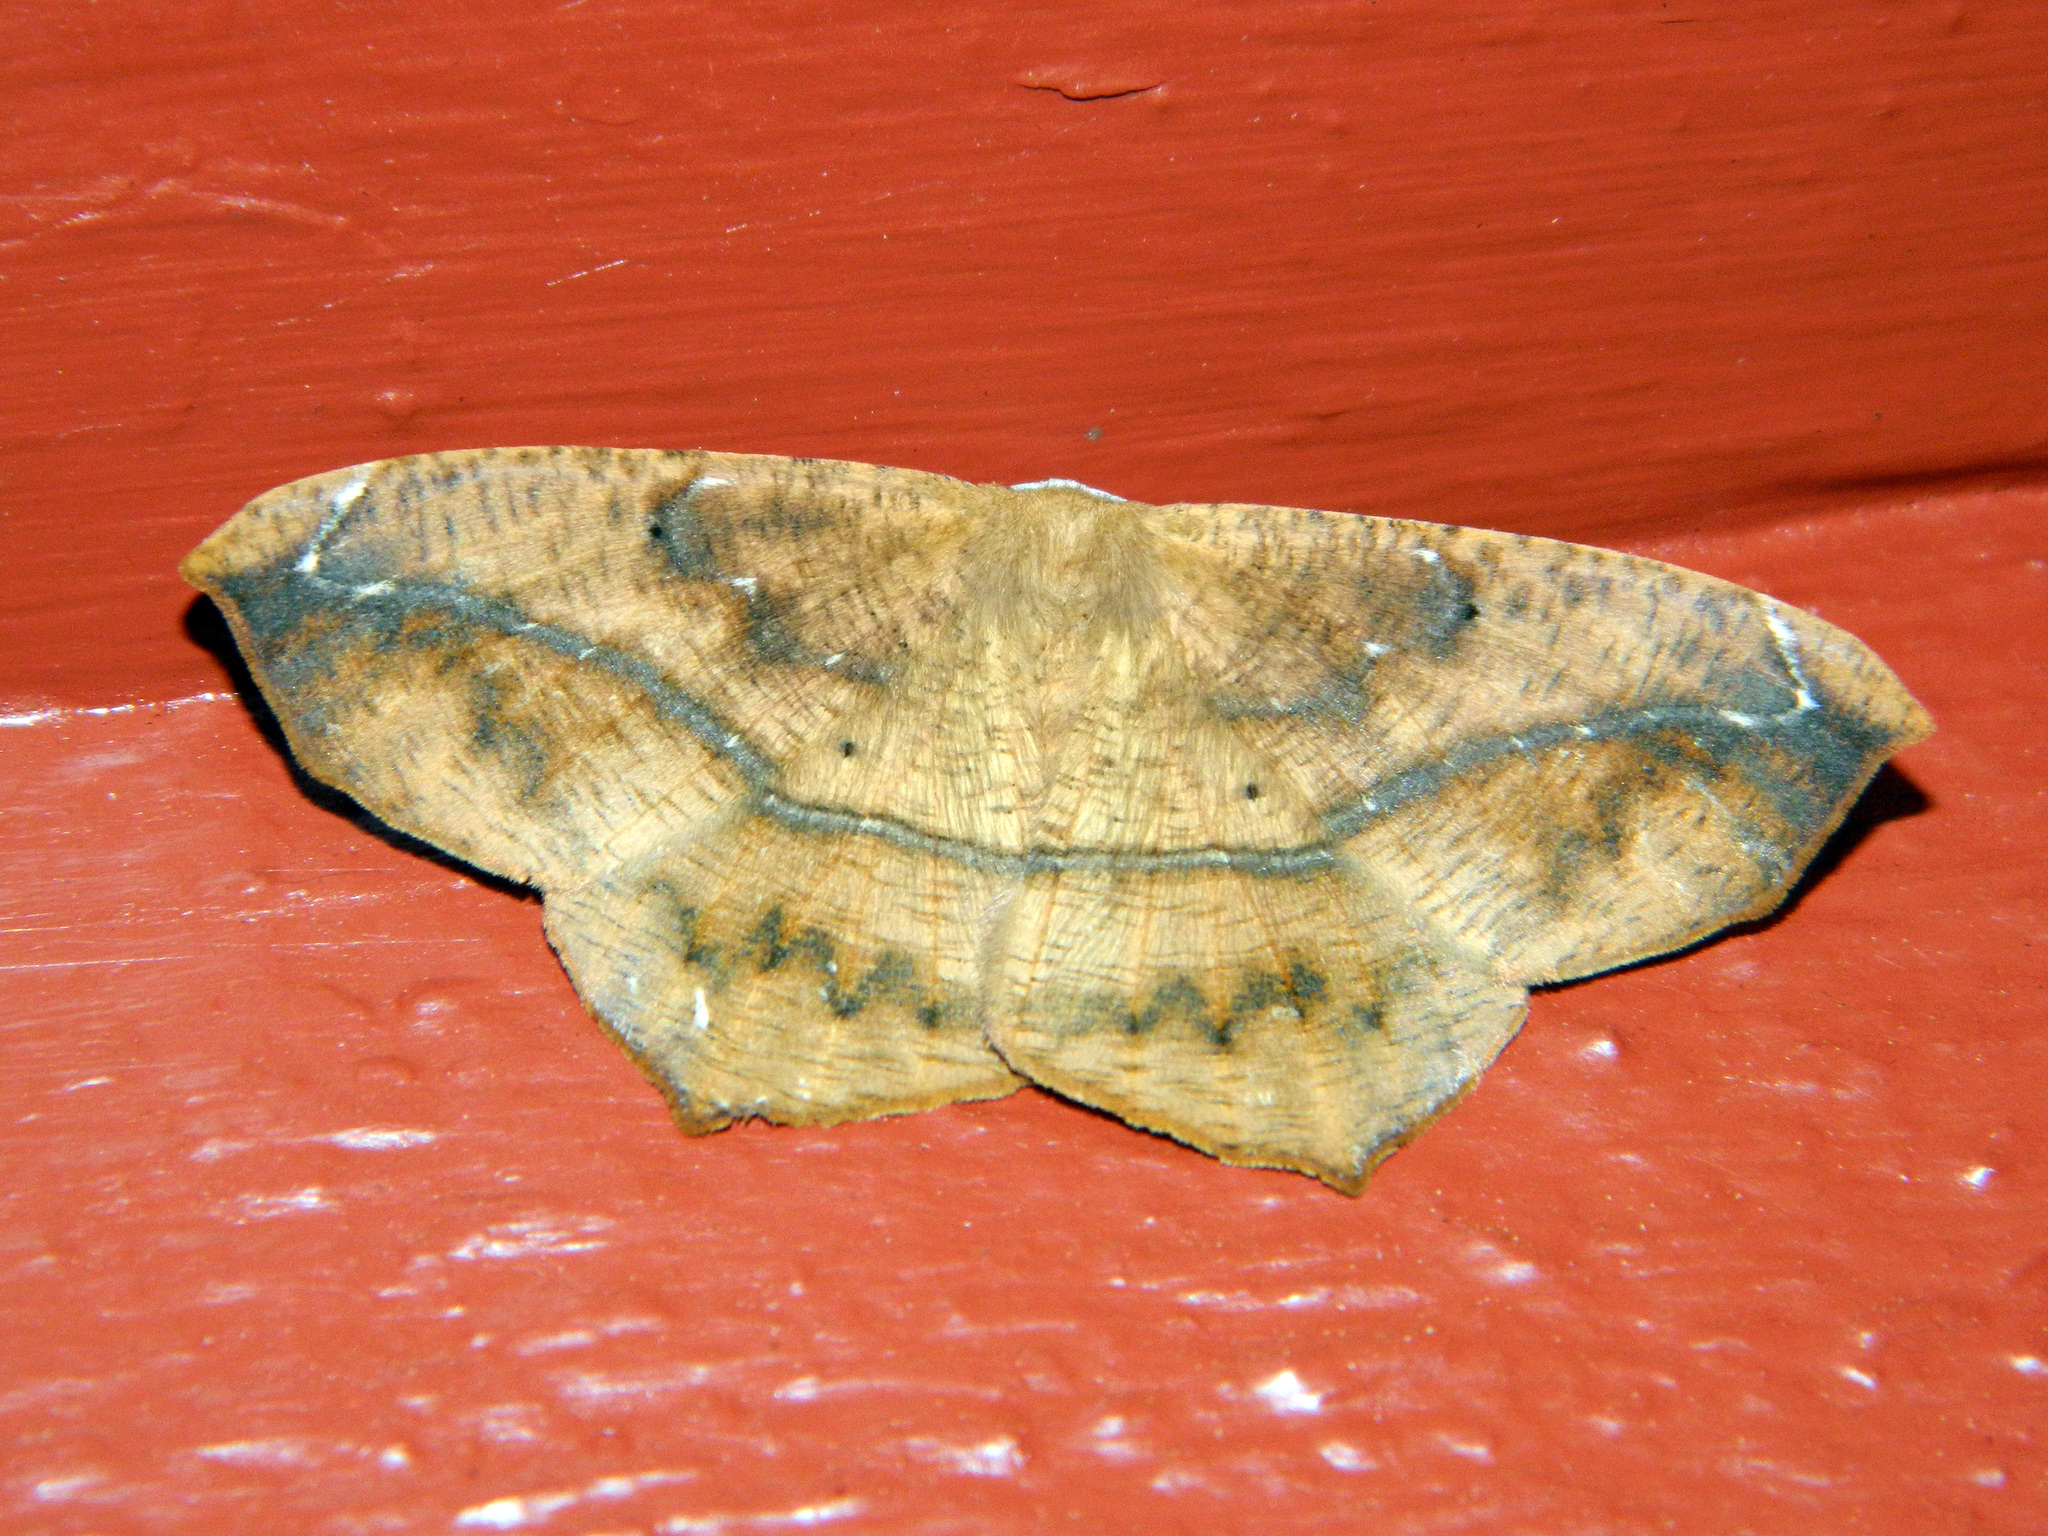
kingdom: Animalia
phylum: Arthropoda
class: Insecta
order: Lepidoptera
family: Geometridae
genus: Prochoerodes
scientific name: Prochoerodes lineola
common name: Large maple spanworm
